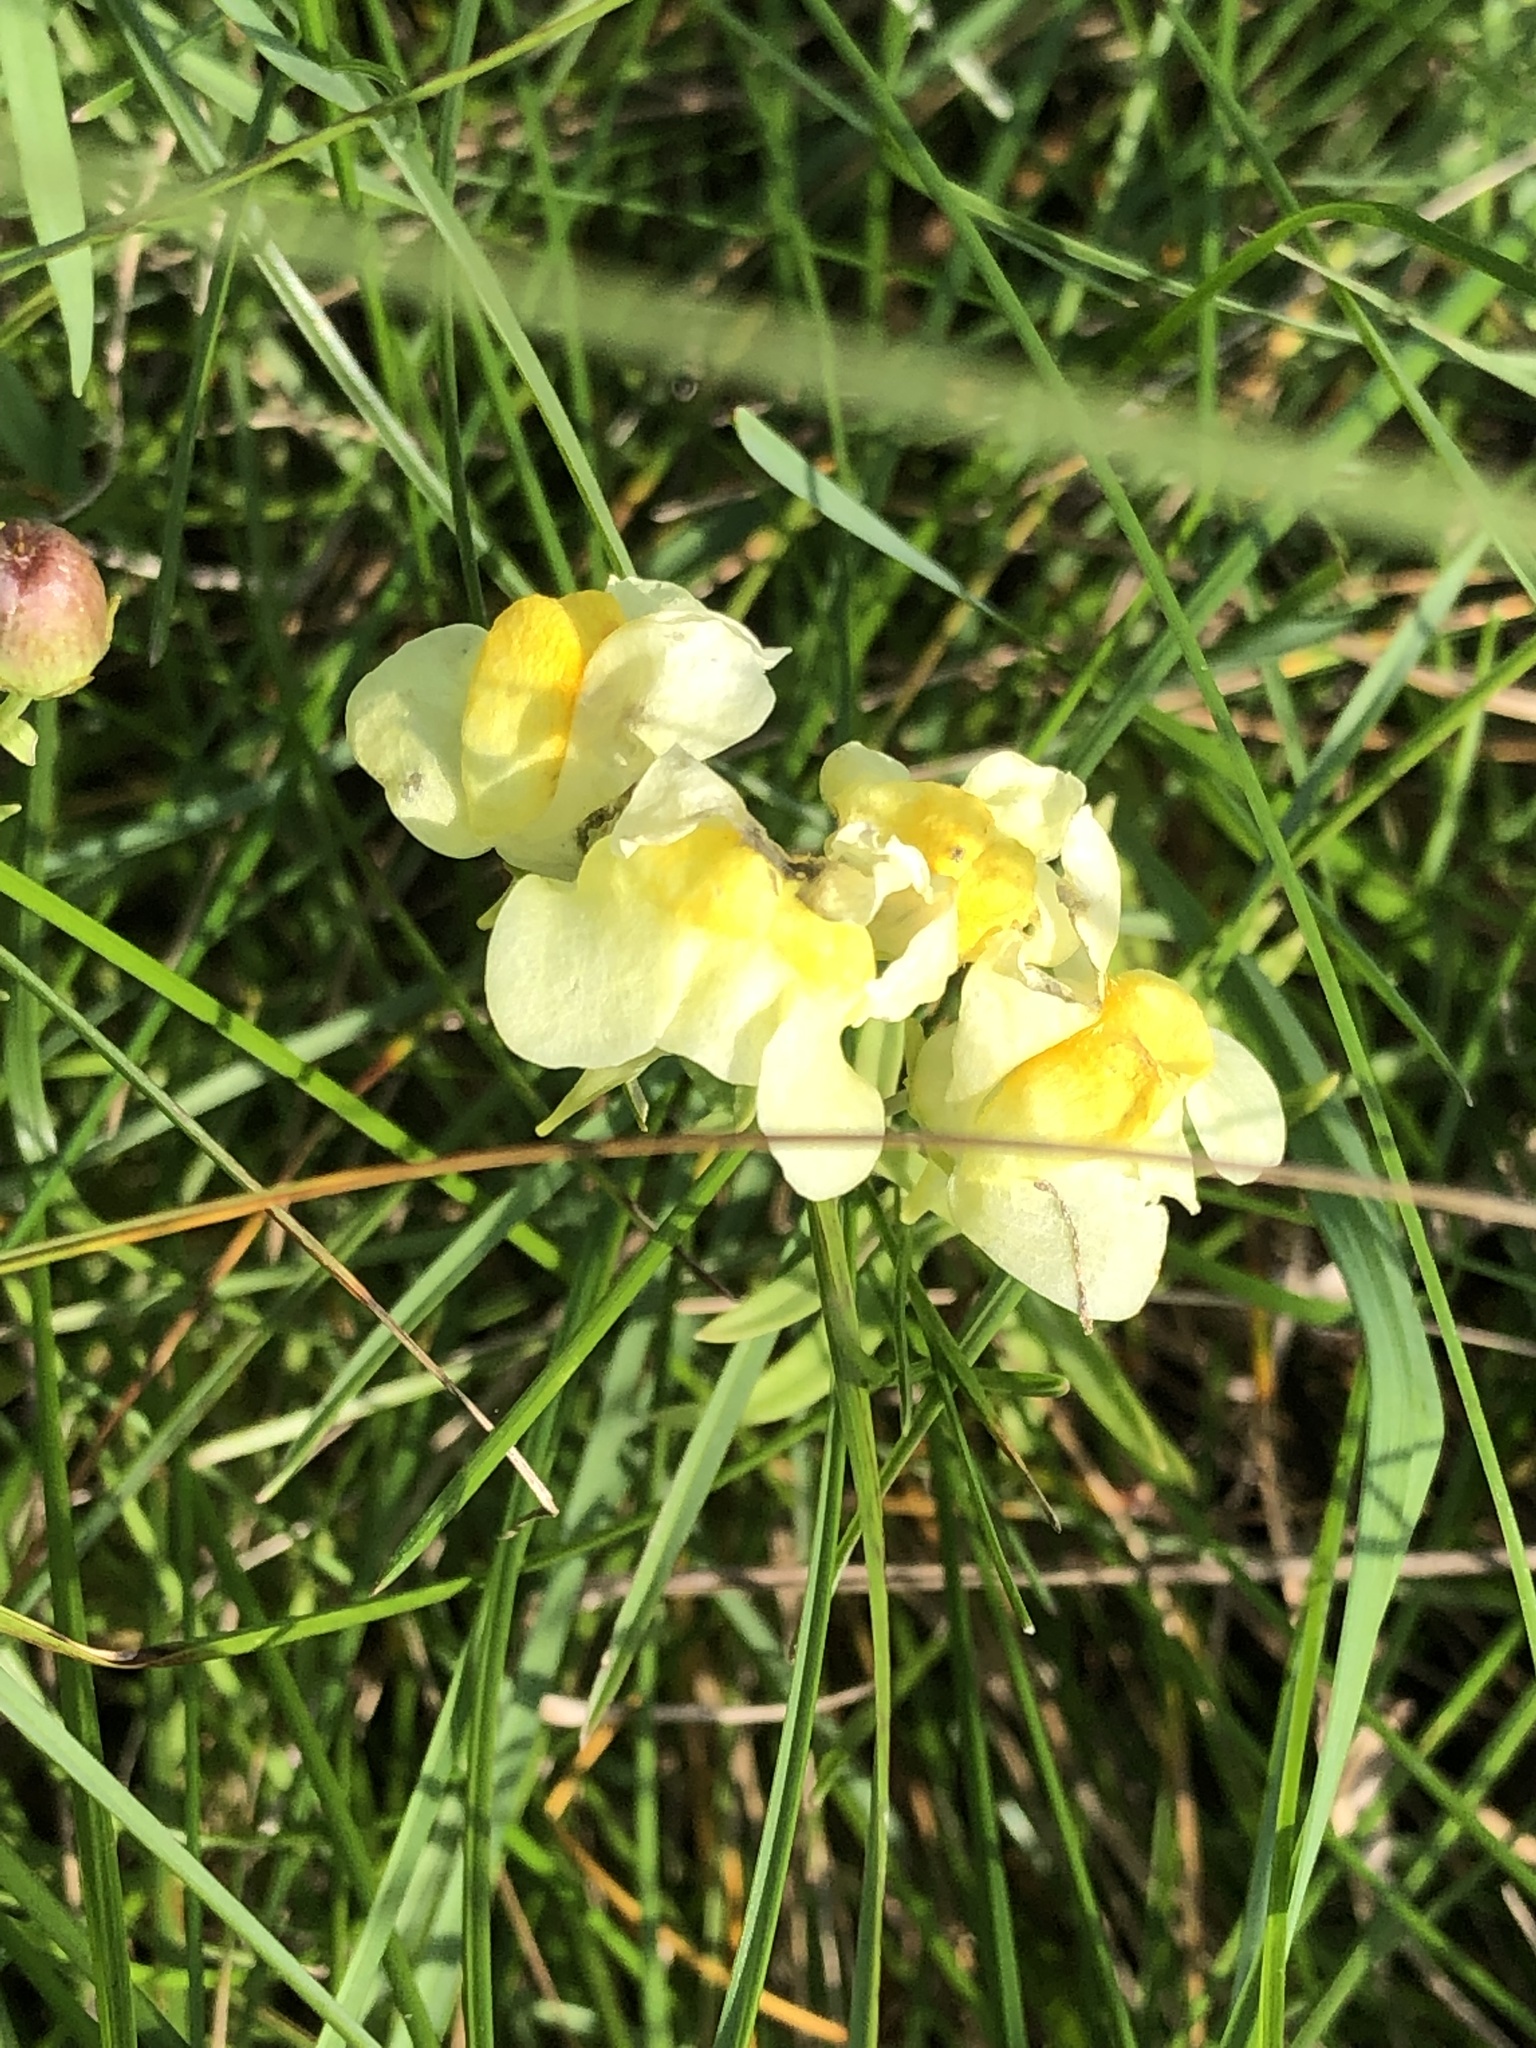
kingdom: Plantae
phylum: Tracheophyta
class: Magnoliopsida
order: Lamiales
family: Plantaginaceae
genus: Linaria
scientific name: Linaria vulgaris
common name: Butter and eggs
